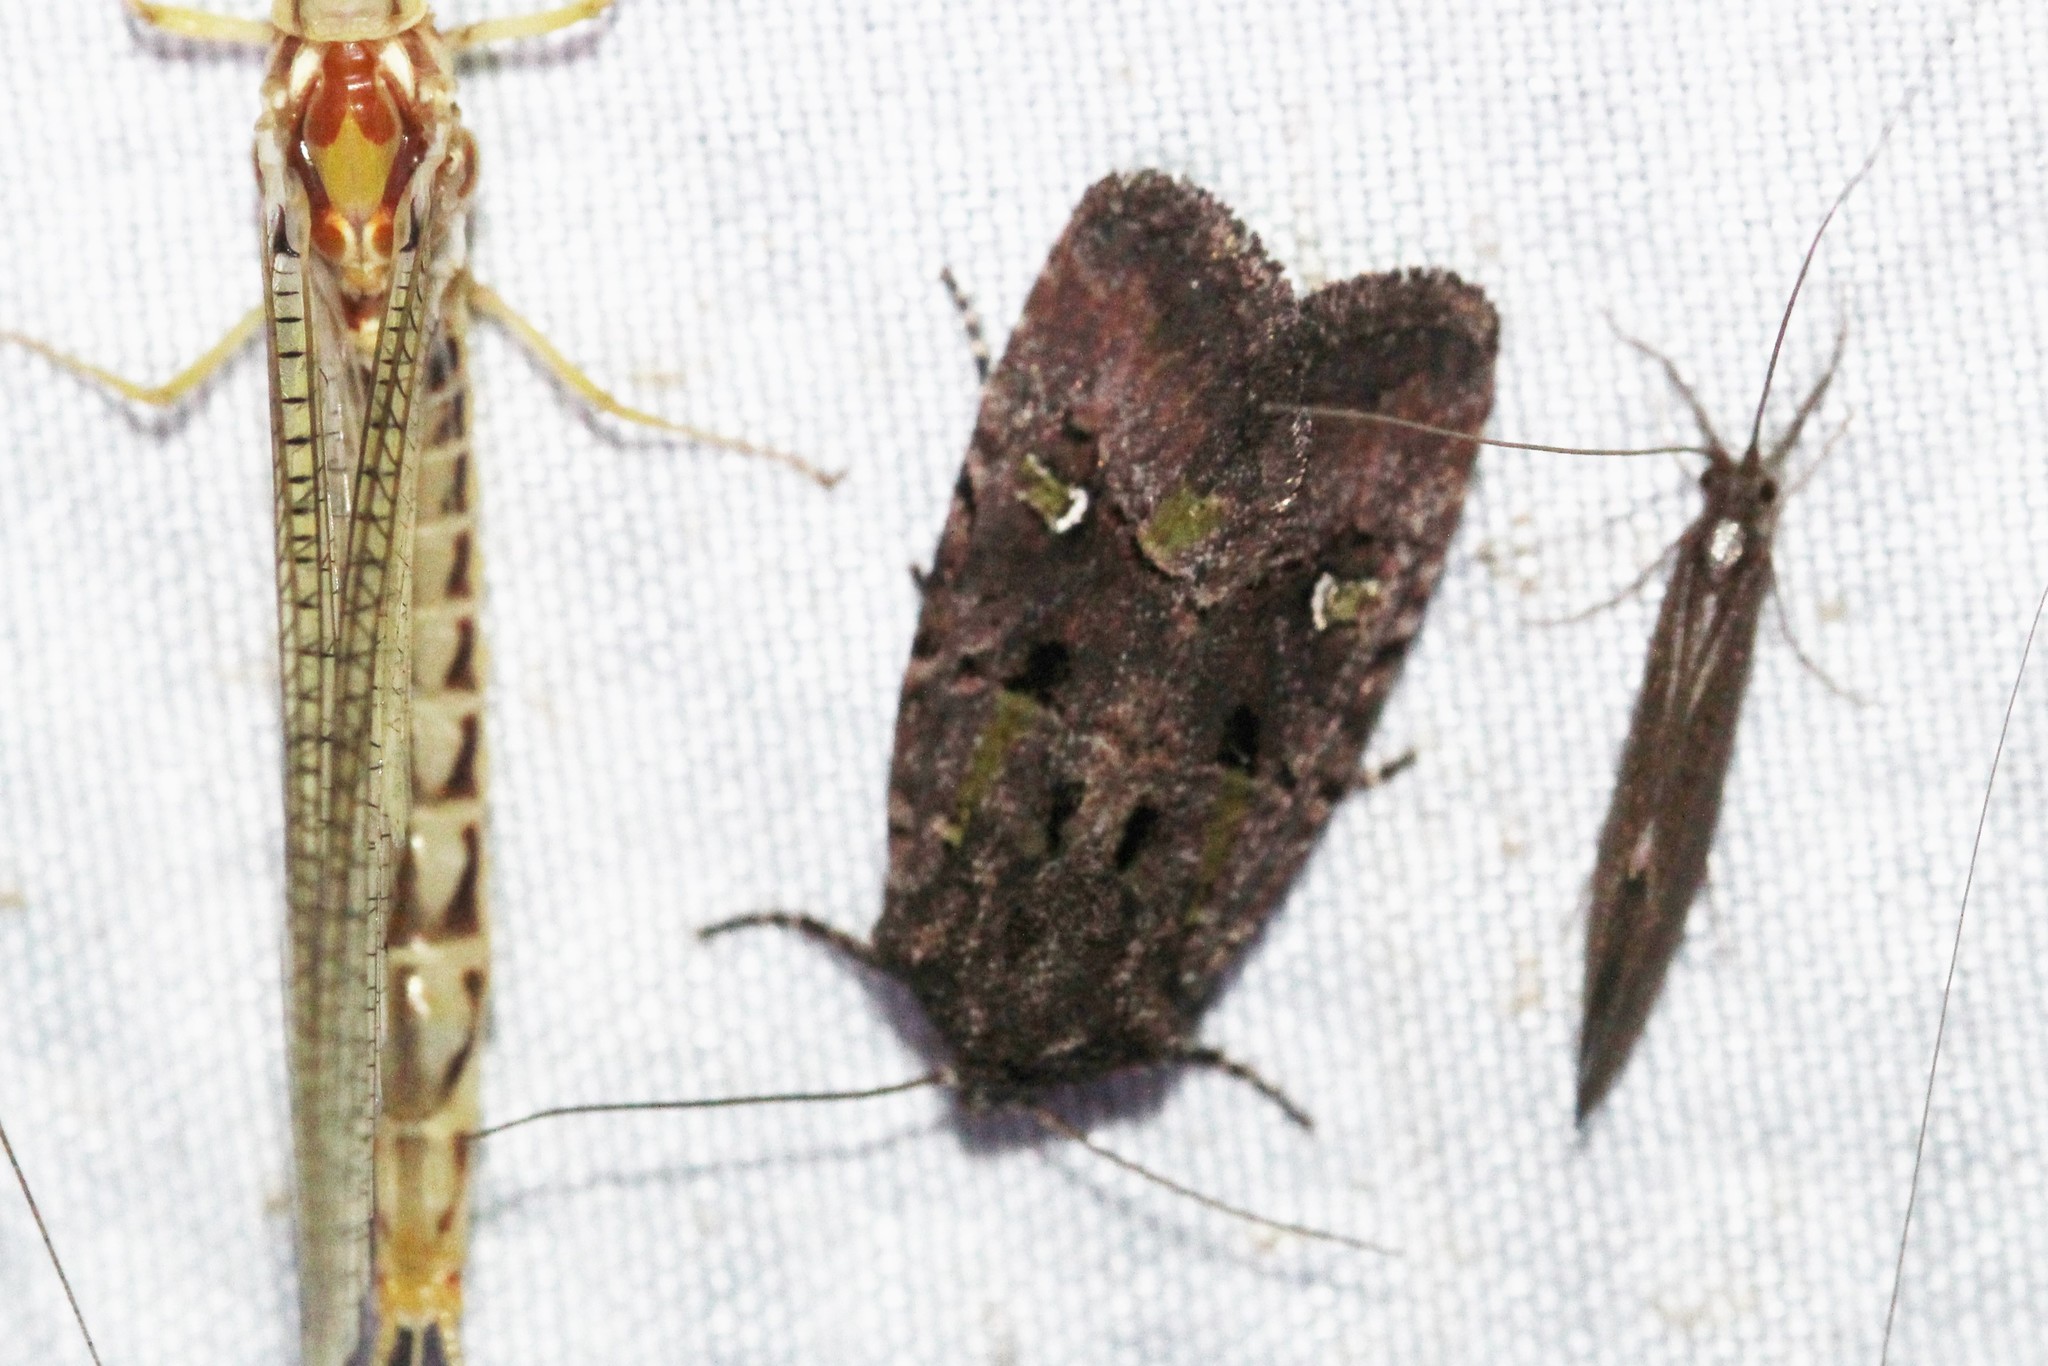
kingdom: Animalia
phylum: Arthropoda
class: Insecta
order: Lepidoptera
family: Noctuidae
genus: Lacinipolia
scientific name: Lacinipolia renigera
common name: Kidney-spotted minor
